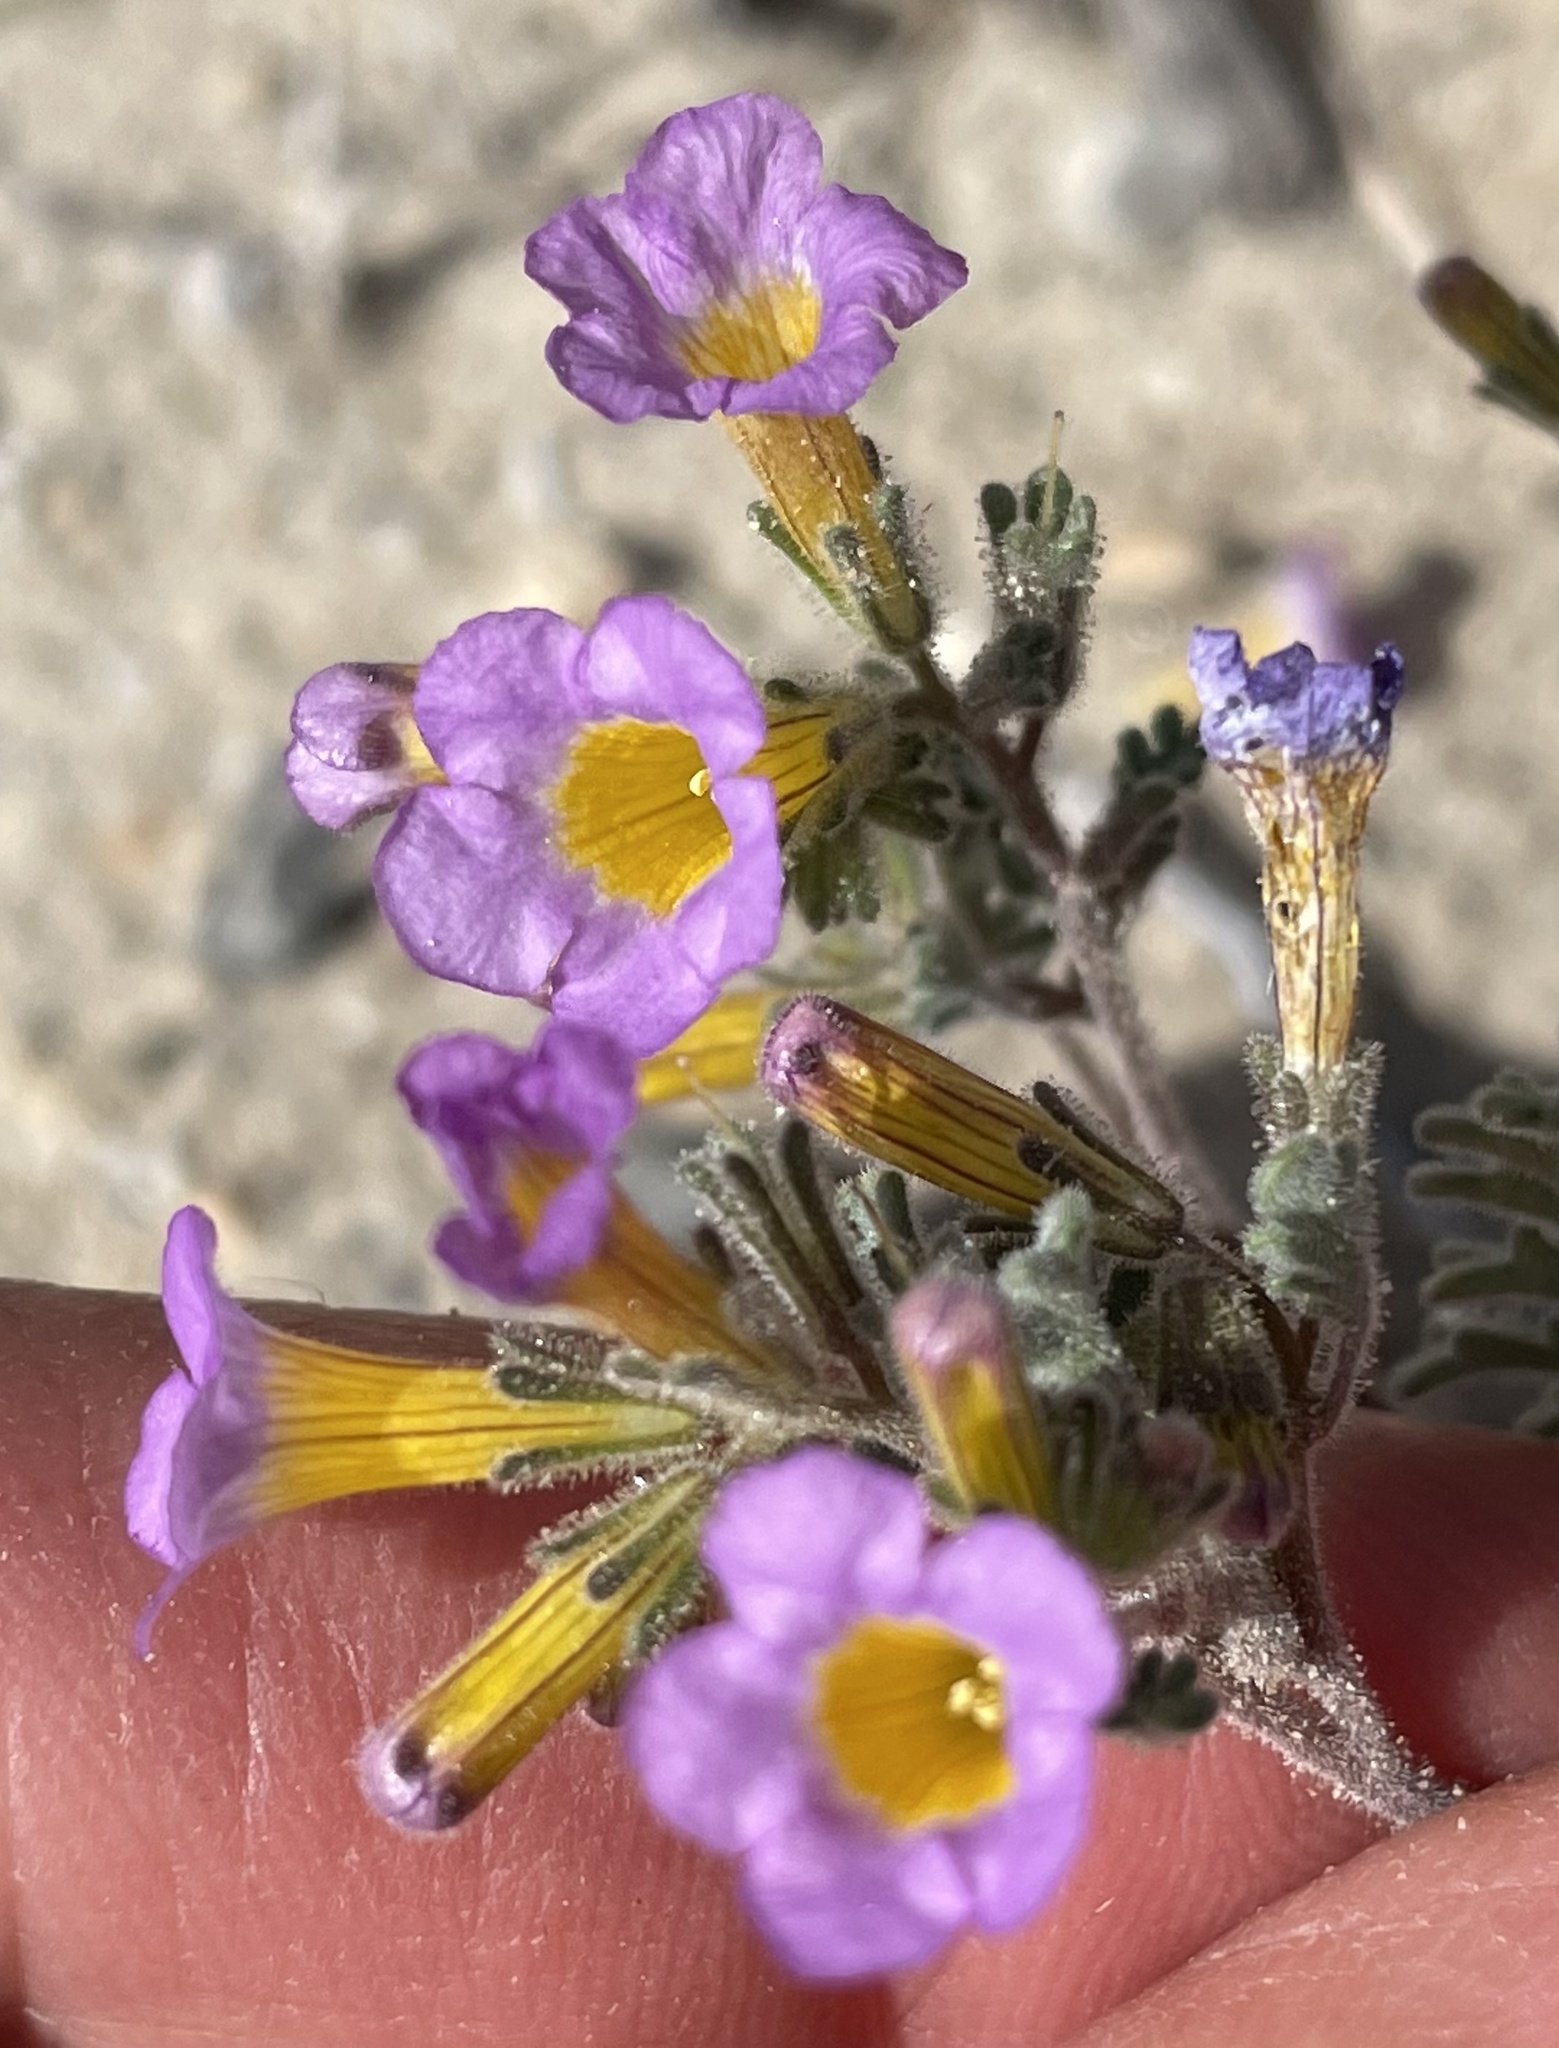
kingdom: Plantae
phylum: Tracheophyta
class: Magnoliopsida
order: Boraginales
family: Hydrophyllaceae
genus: Phacelia
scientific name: Phacelia bicolor
